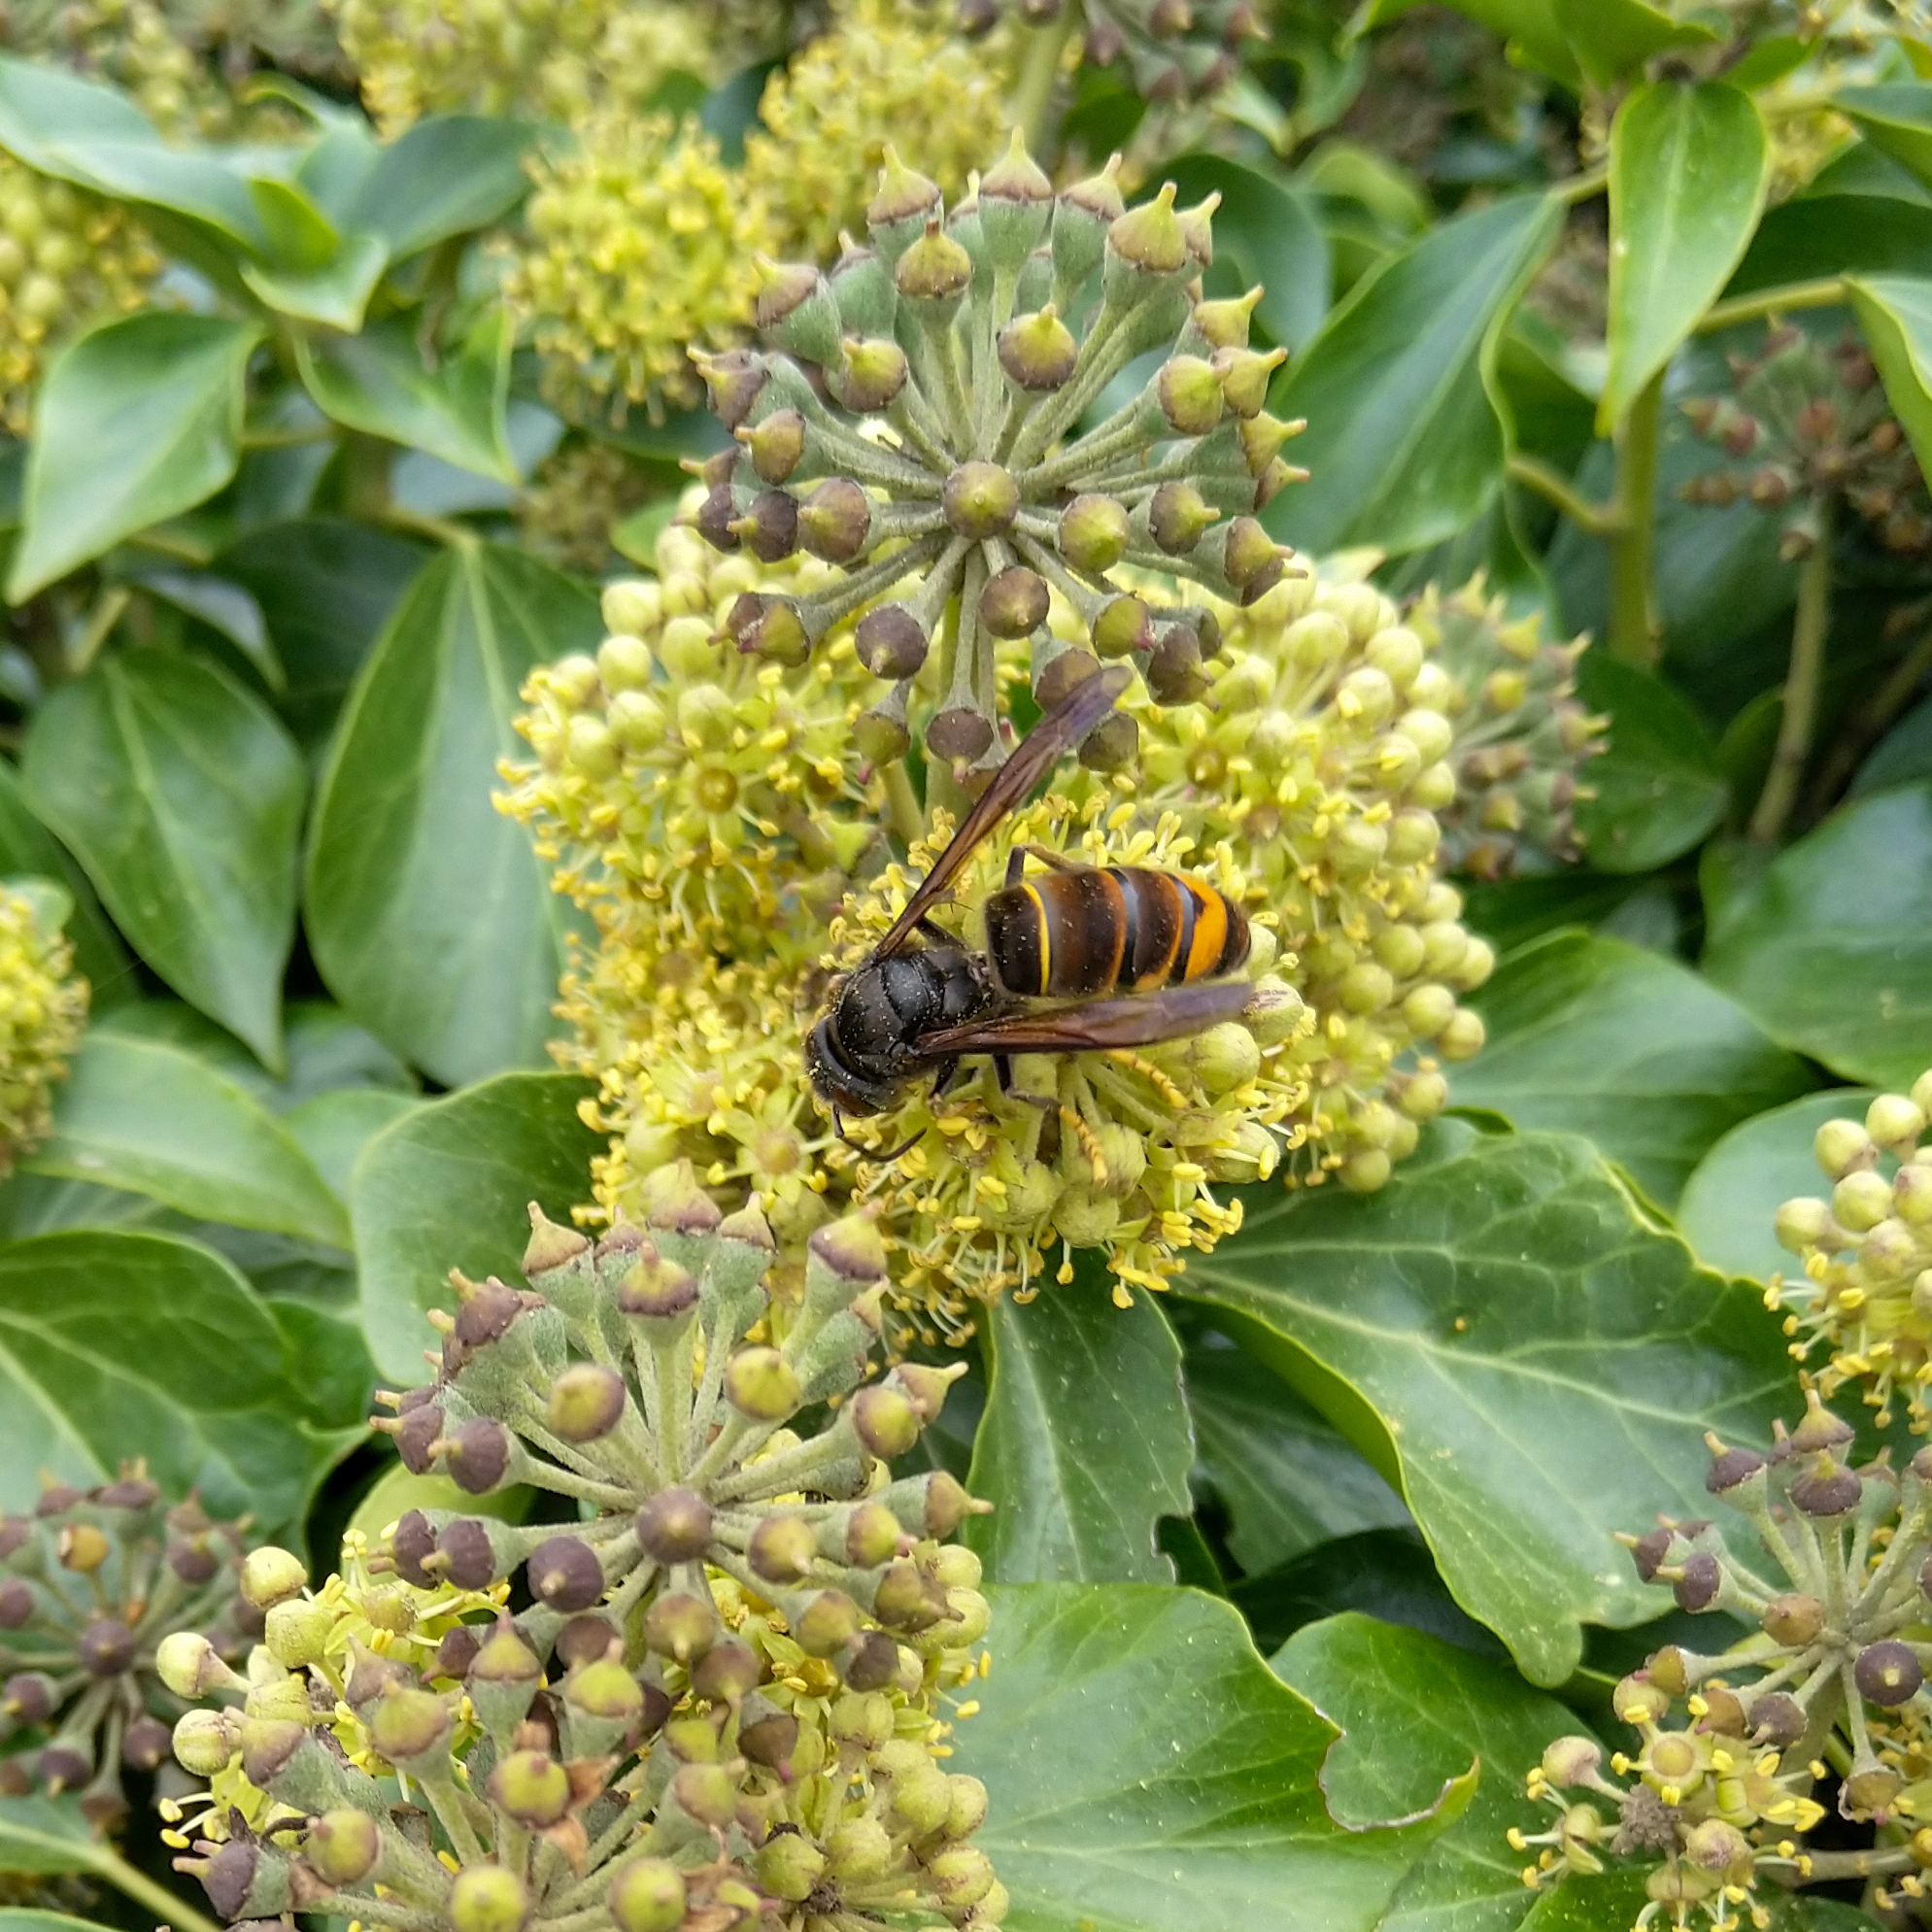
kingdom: Animalia
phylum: Arthropoda
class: Insecta
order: Hymenoptera
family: Vespidae
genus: Vespa
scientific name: Vespa velutina
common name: Asian hornet
